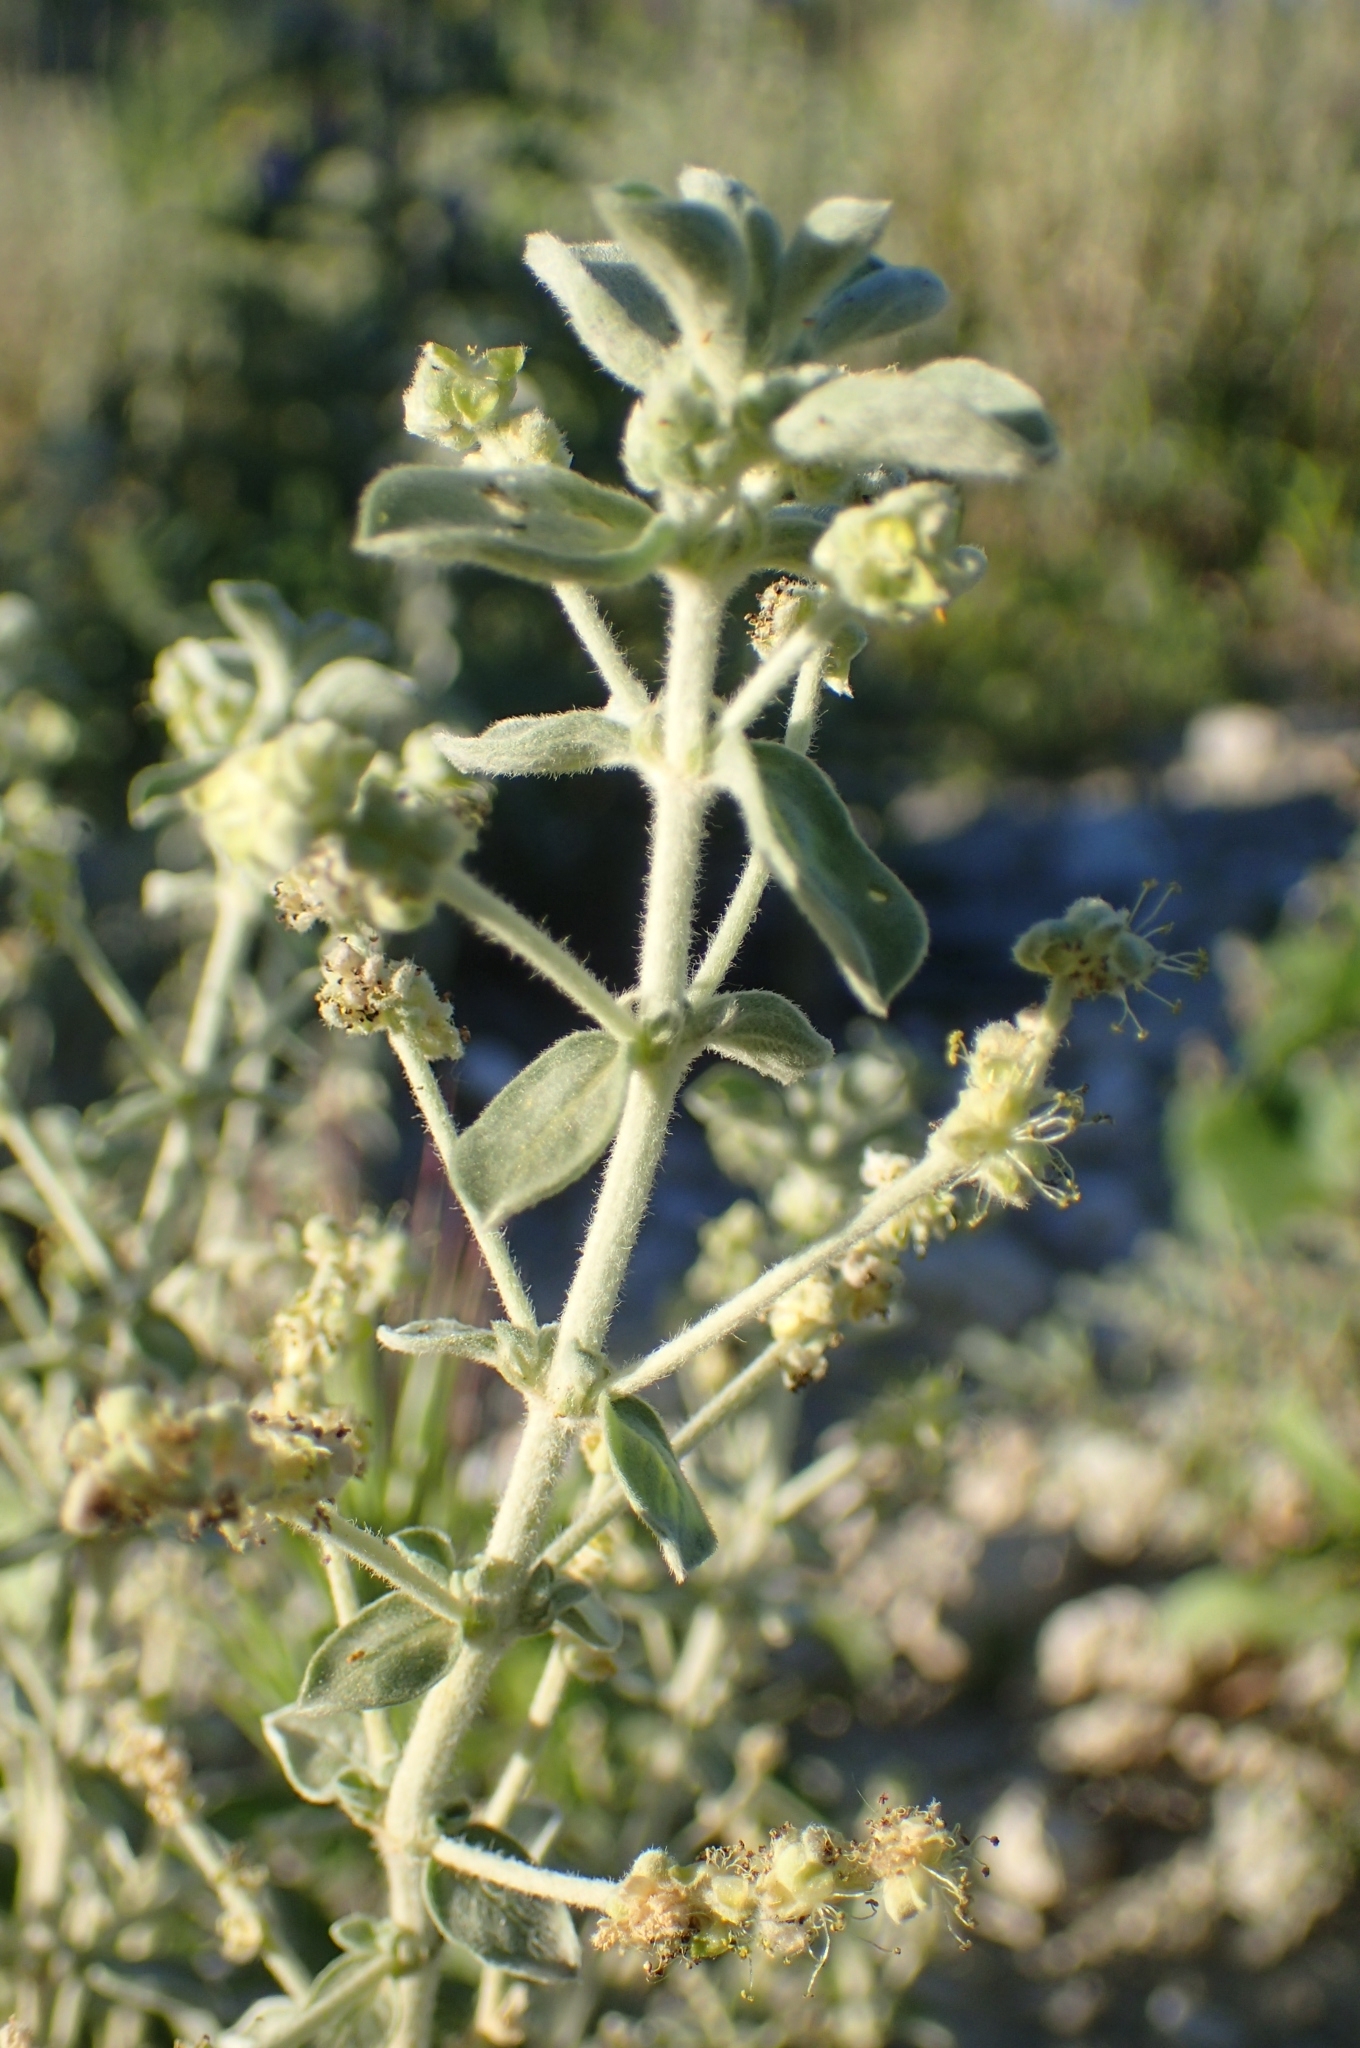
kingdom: Plantae
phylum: Tracheophyta
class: Magnoliopsida
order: Malpighiales
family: Euphorbiaceae
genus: Mercurialis
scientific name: Mercurialis tomentosa
